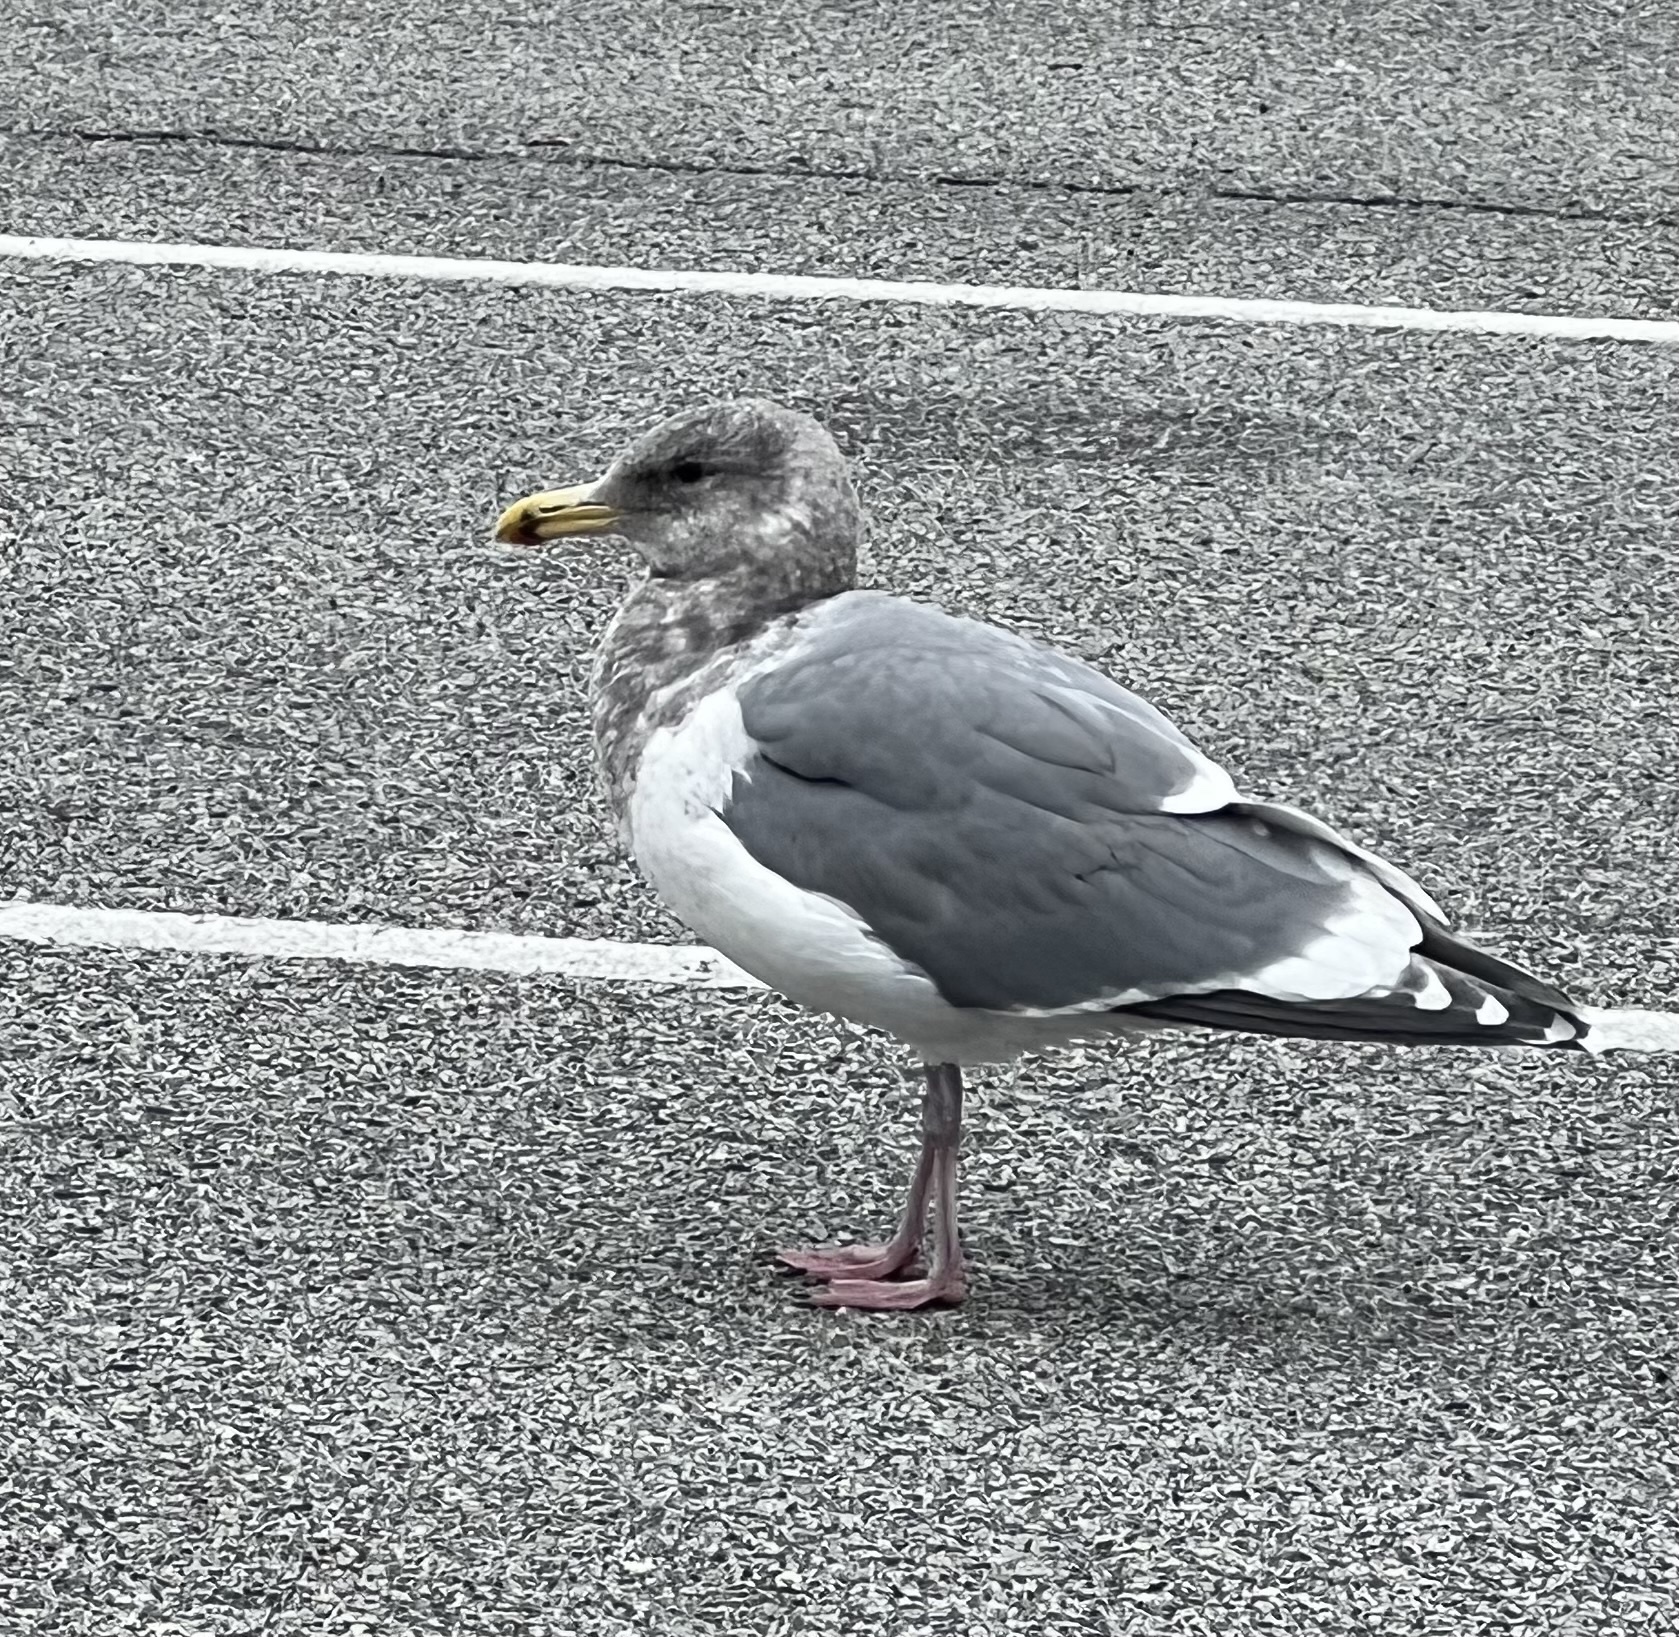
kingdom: Animalia
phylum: Chordata
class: Aves
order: Charadriiformes
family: Laridae
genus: Larus
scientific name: Larus
